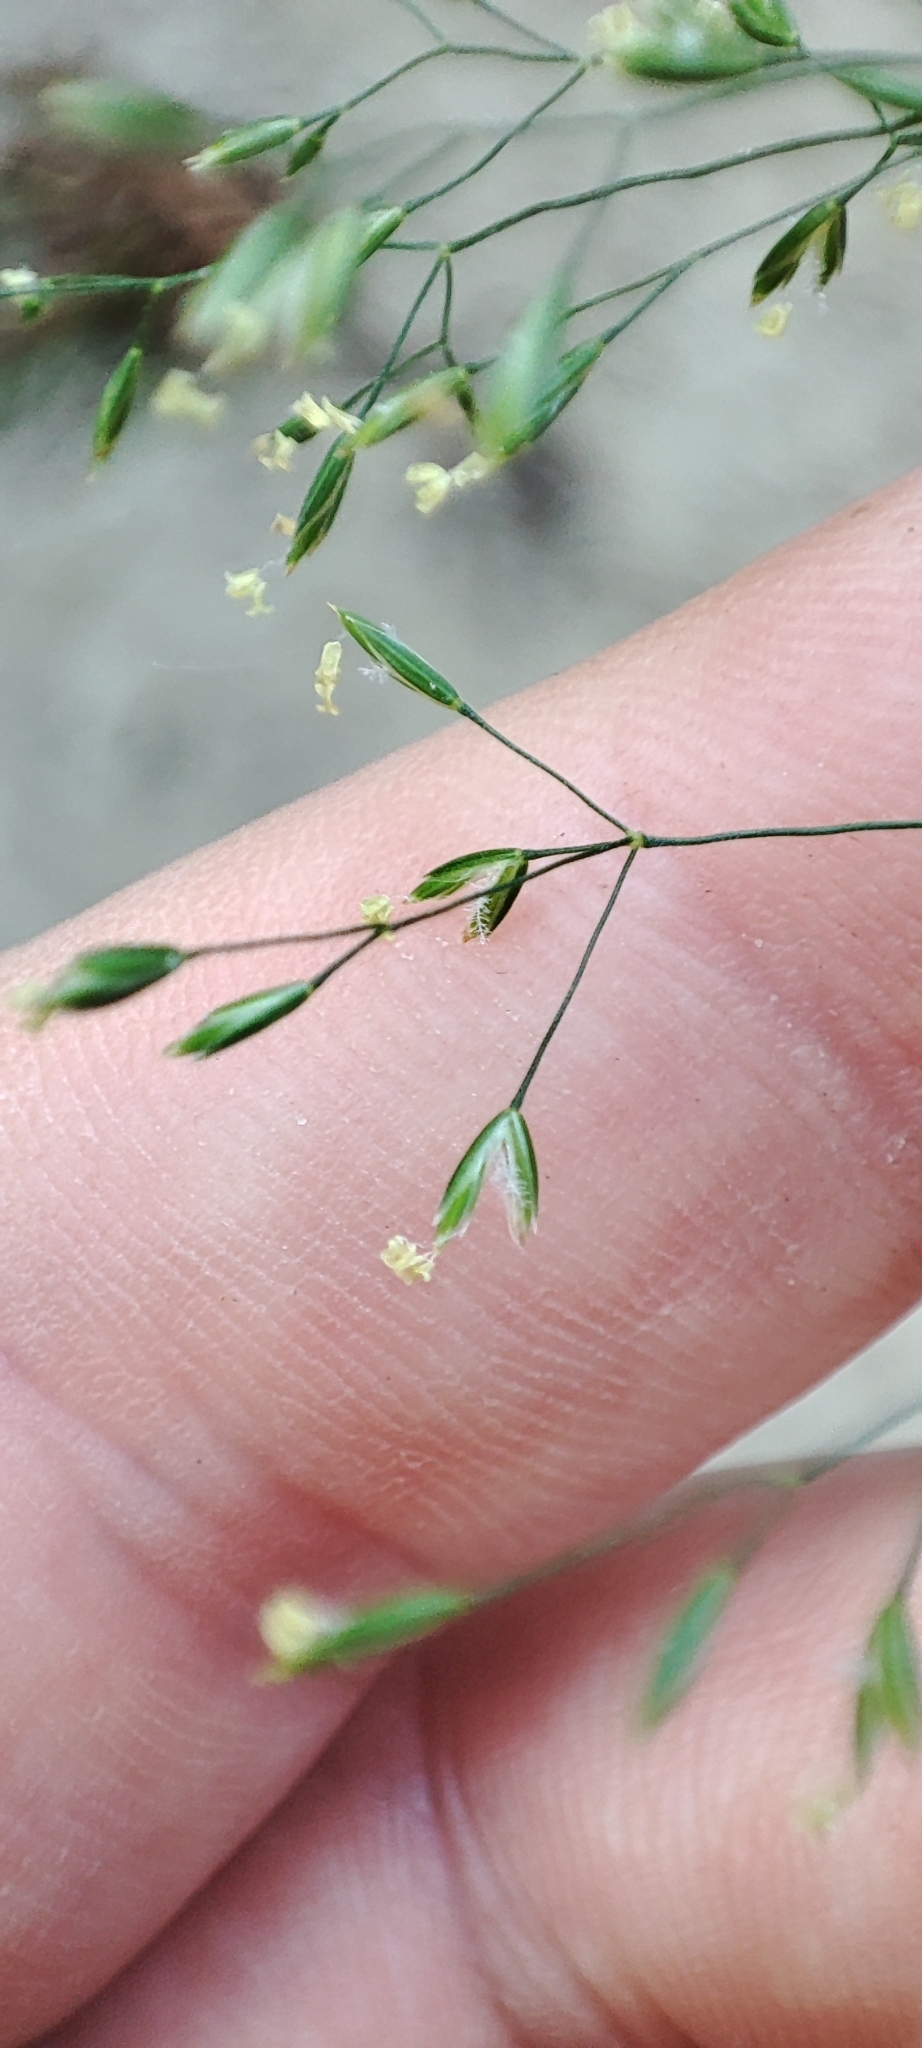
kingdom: Plantae
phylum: Tracheophyta
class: Liliopsida
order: Poales
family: Poaceae
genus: Poa
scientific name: Poa palustris
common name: Swamp meadow-grass
